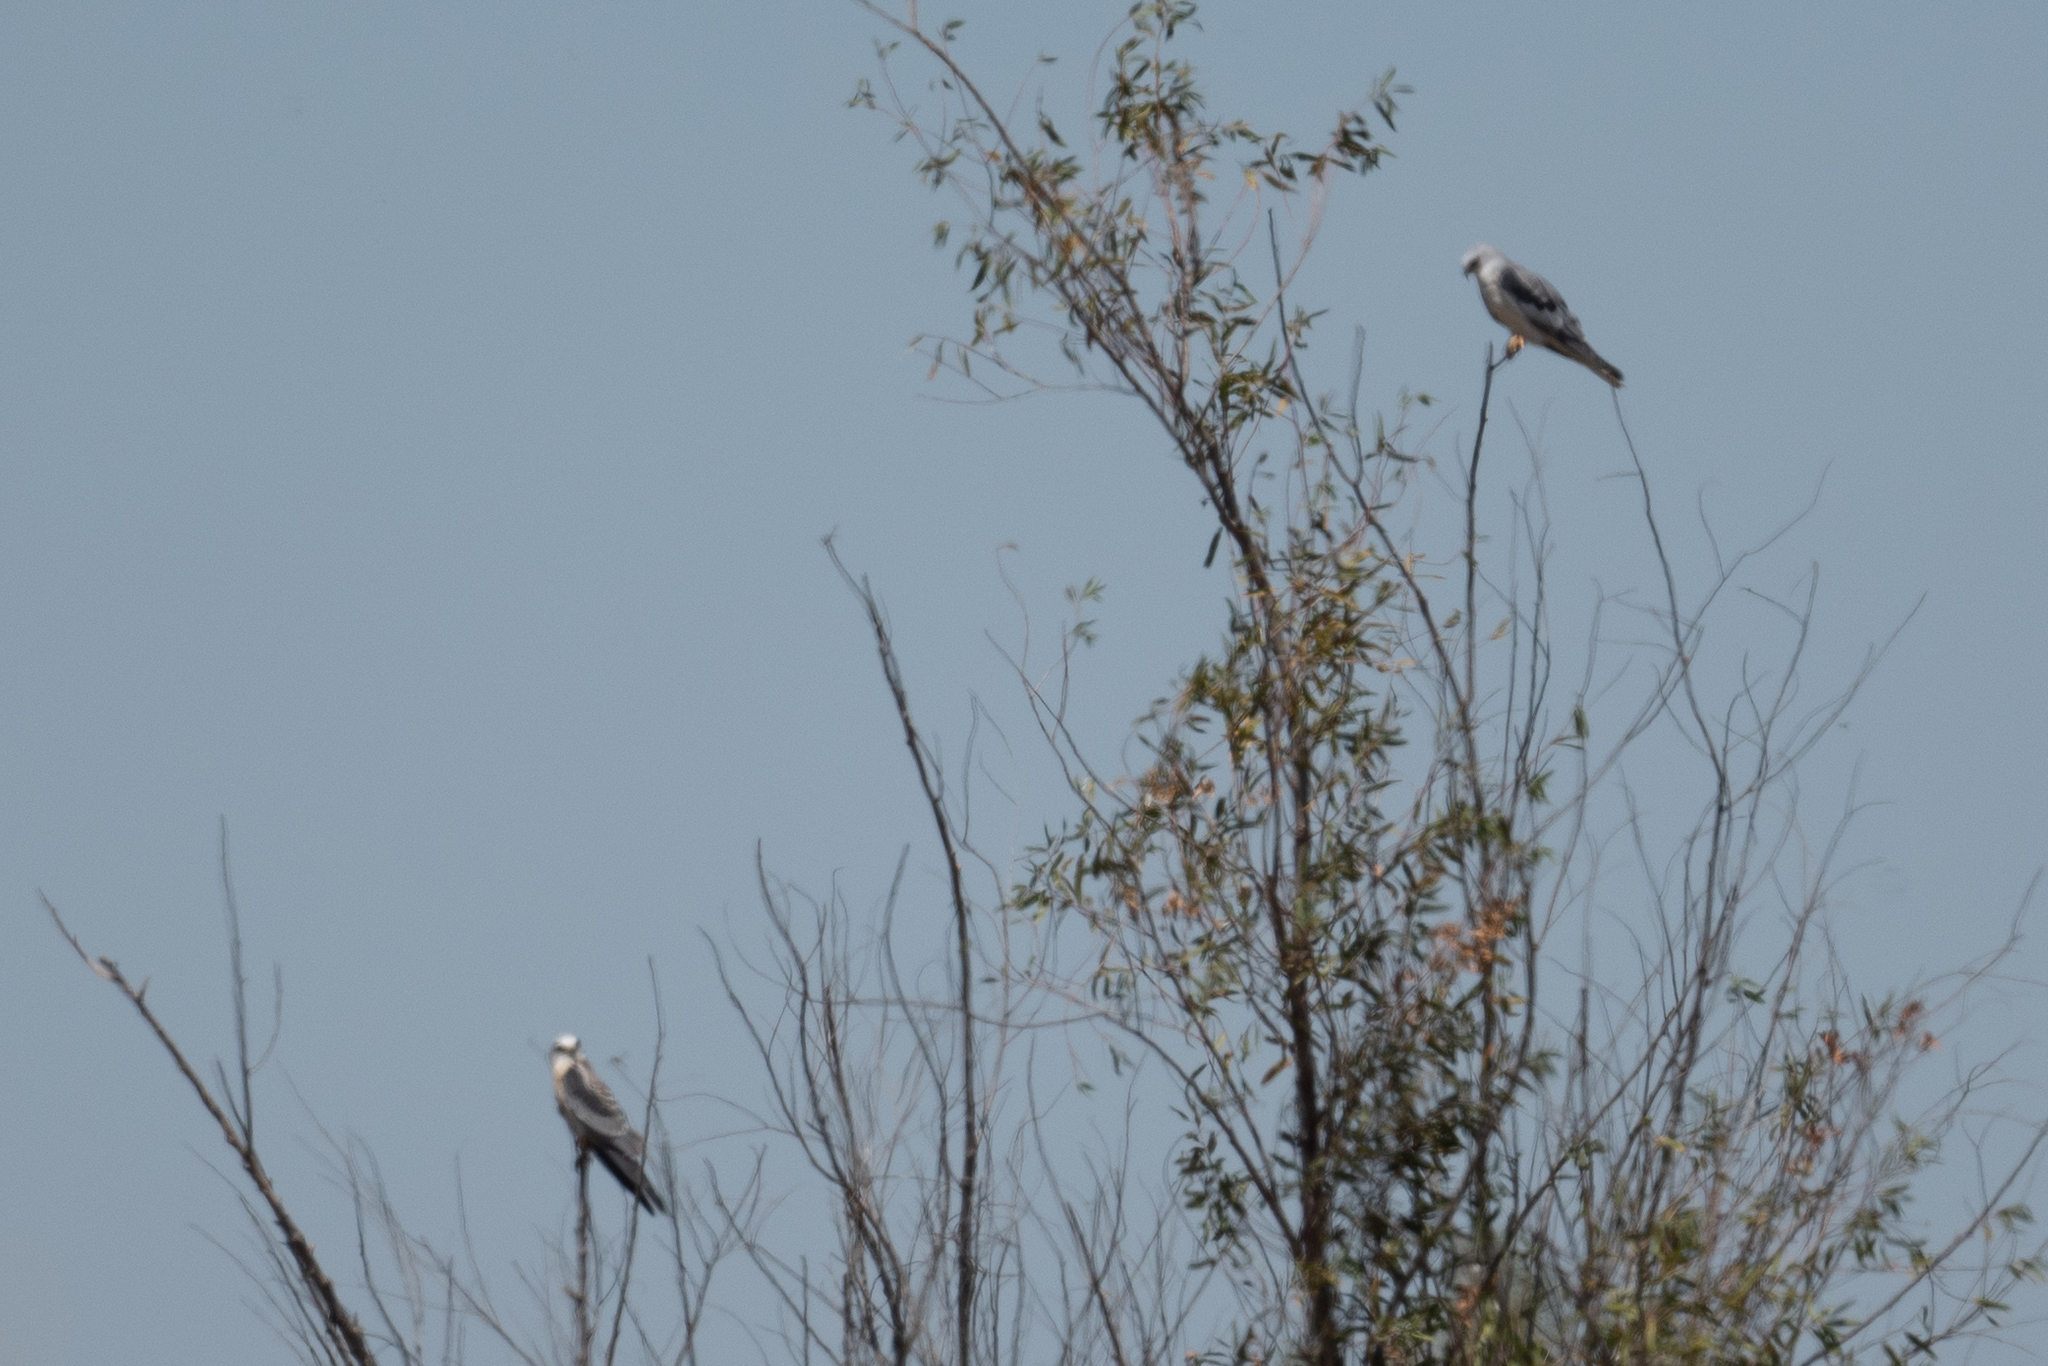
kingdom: Animalia
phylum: Chordata
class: Aves
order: Accipitriformes
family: Accipitridae
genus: Elanus
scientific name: Elanus leucurus
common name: White-tailed kite
